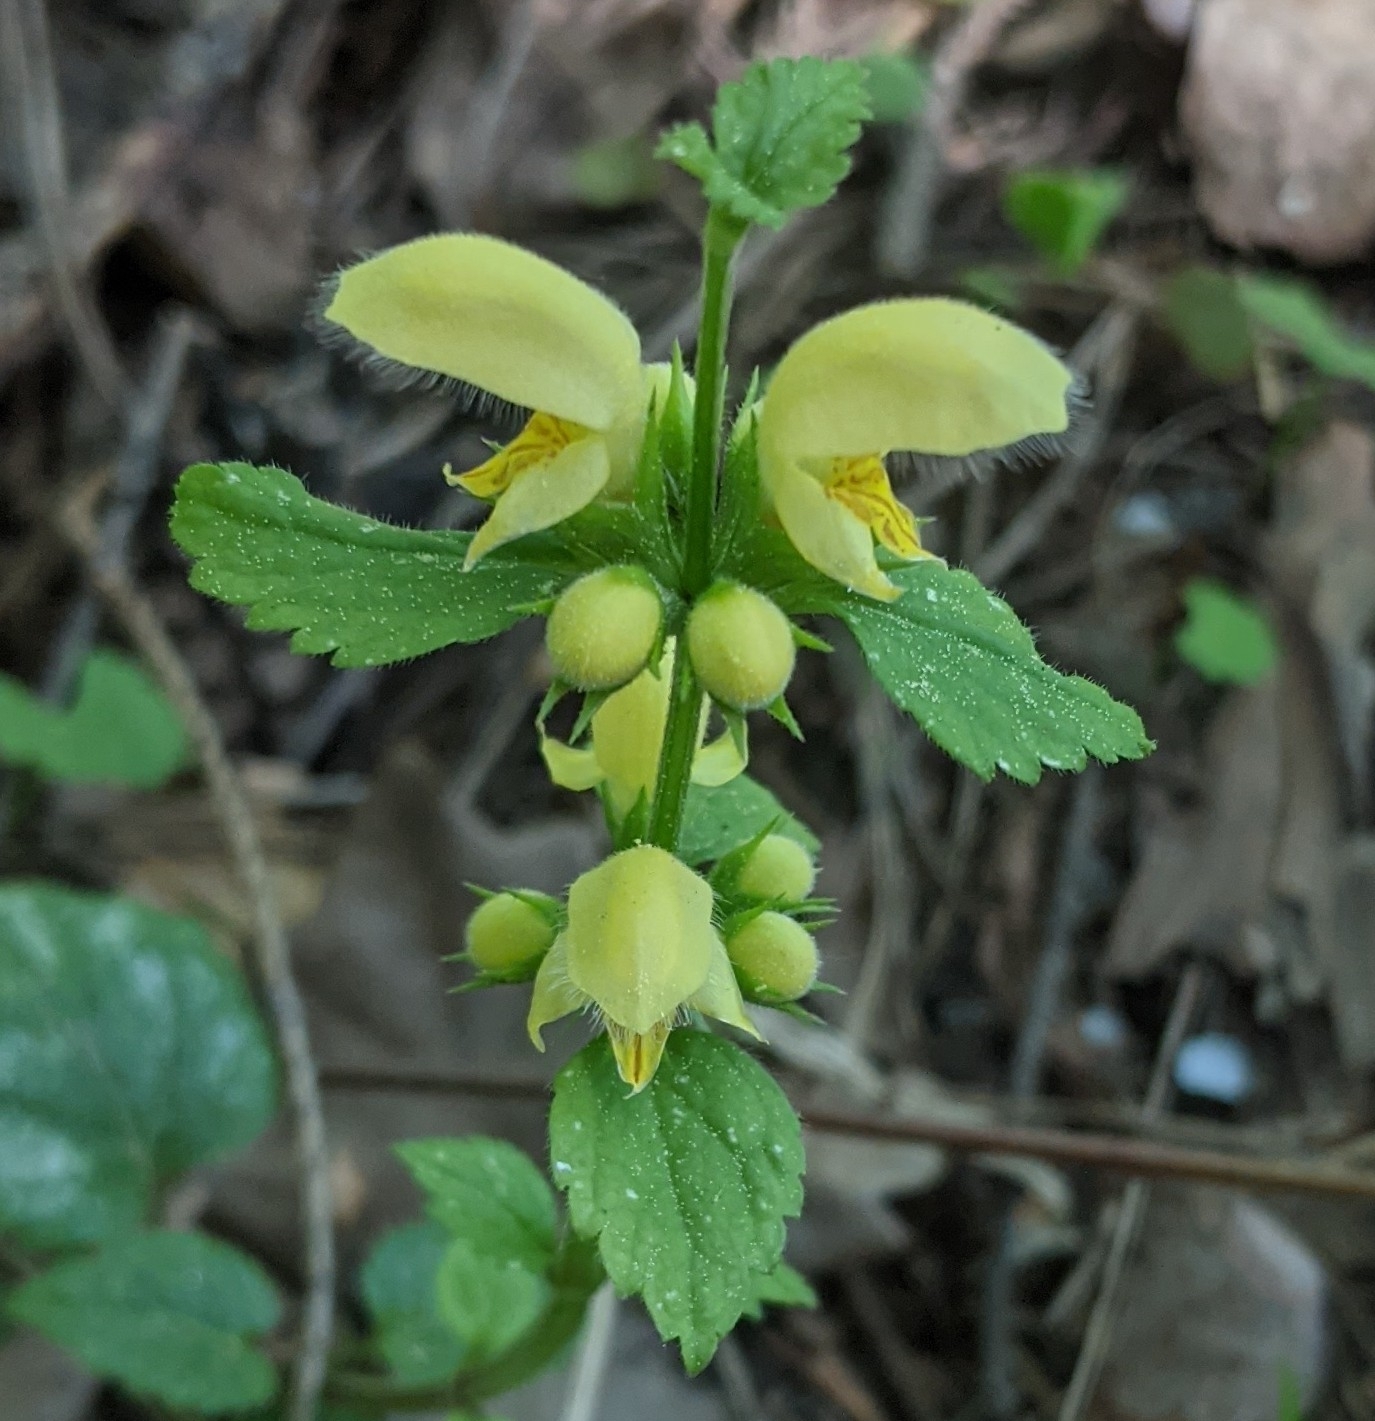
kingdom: Plantae
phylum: Tracheophyta
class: Magnoliopsida
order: Lamiales
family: Lamiaceae
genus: Lamium
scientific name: Lamium galeobdolon
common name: Yellow archangel
